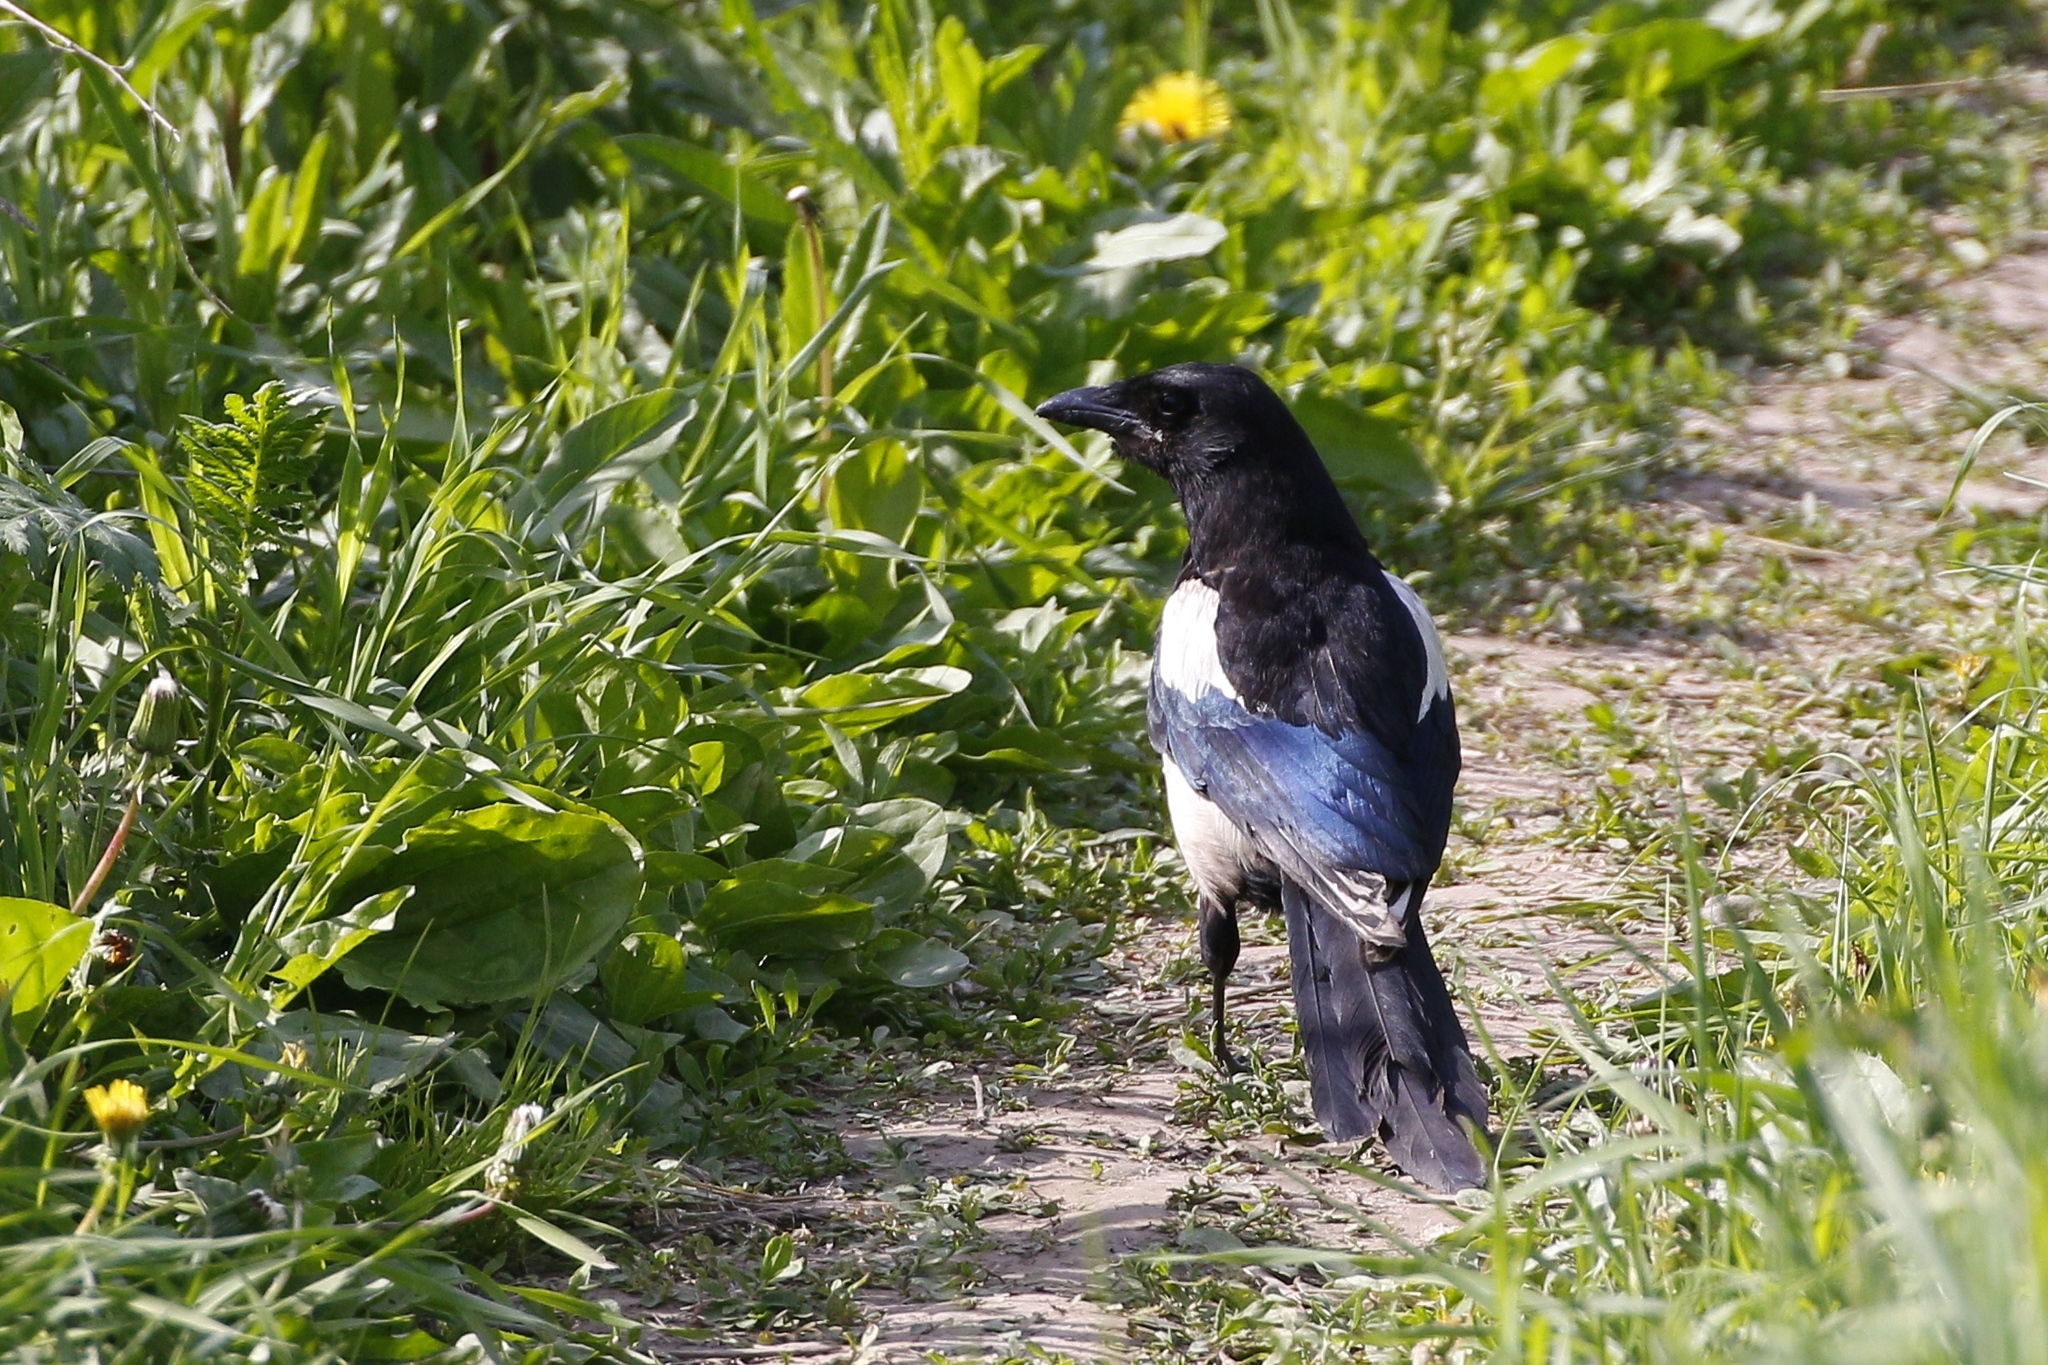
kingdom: Animalia
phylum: Chordata
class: Aves
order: Passeriformes
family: Corvidae
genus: Pica
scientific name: Pica pica
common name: Eurasian magpie
